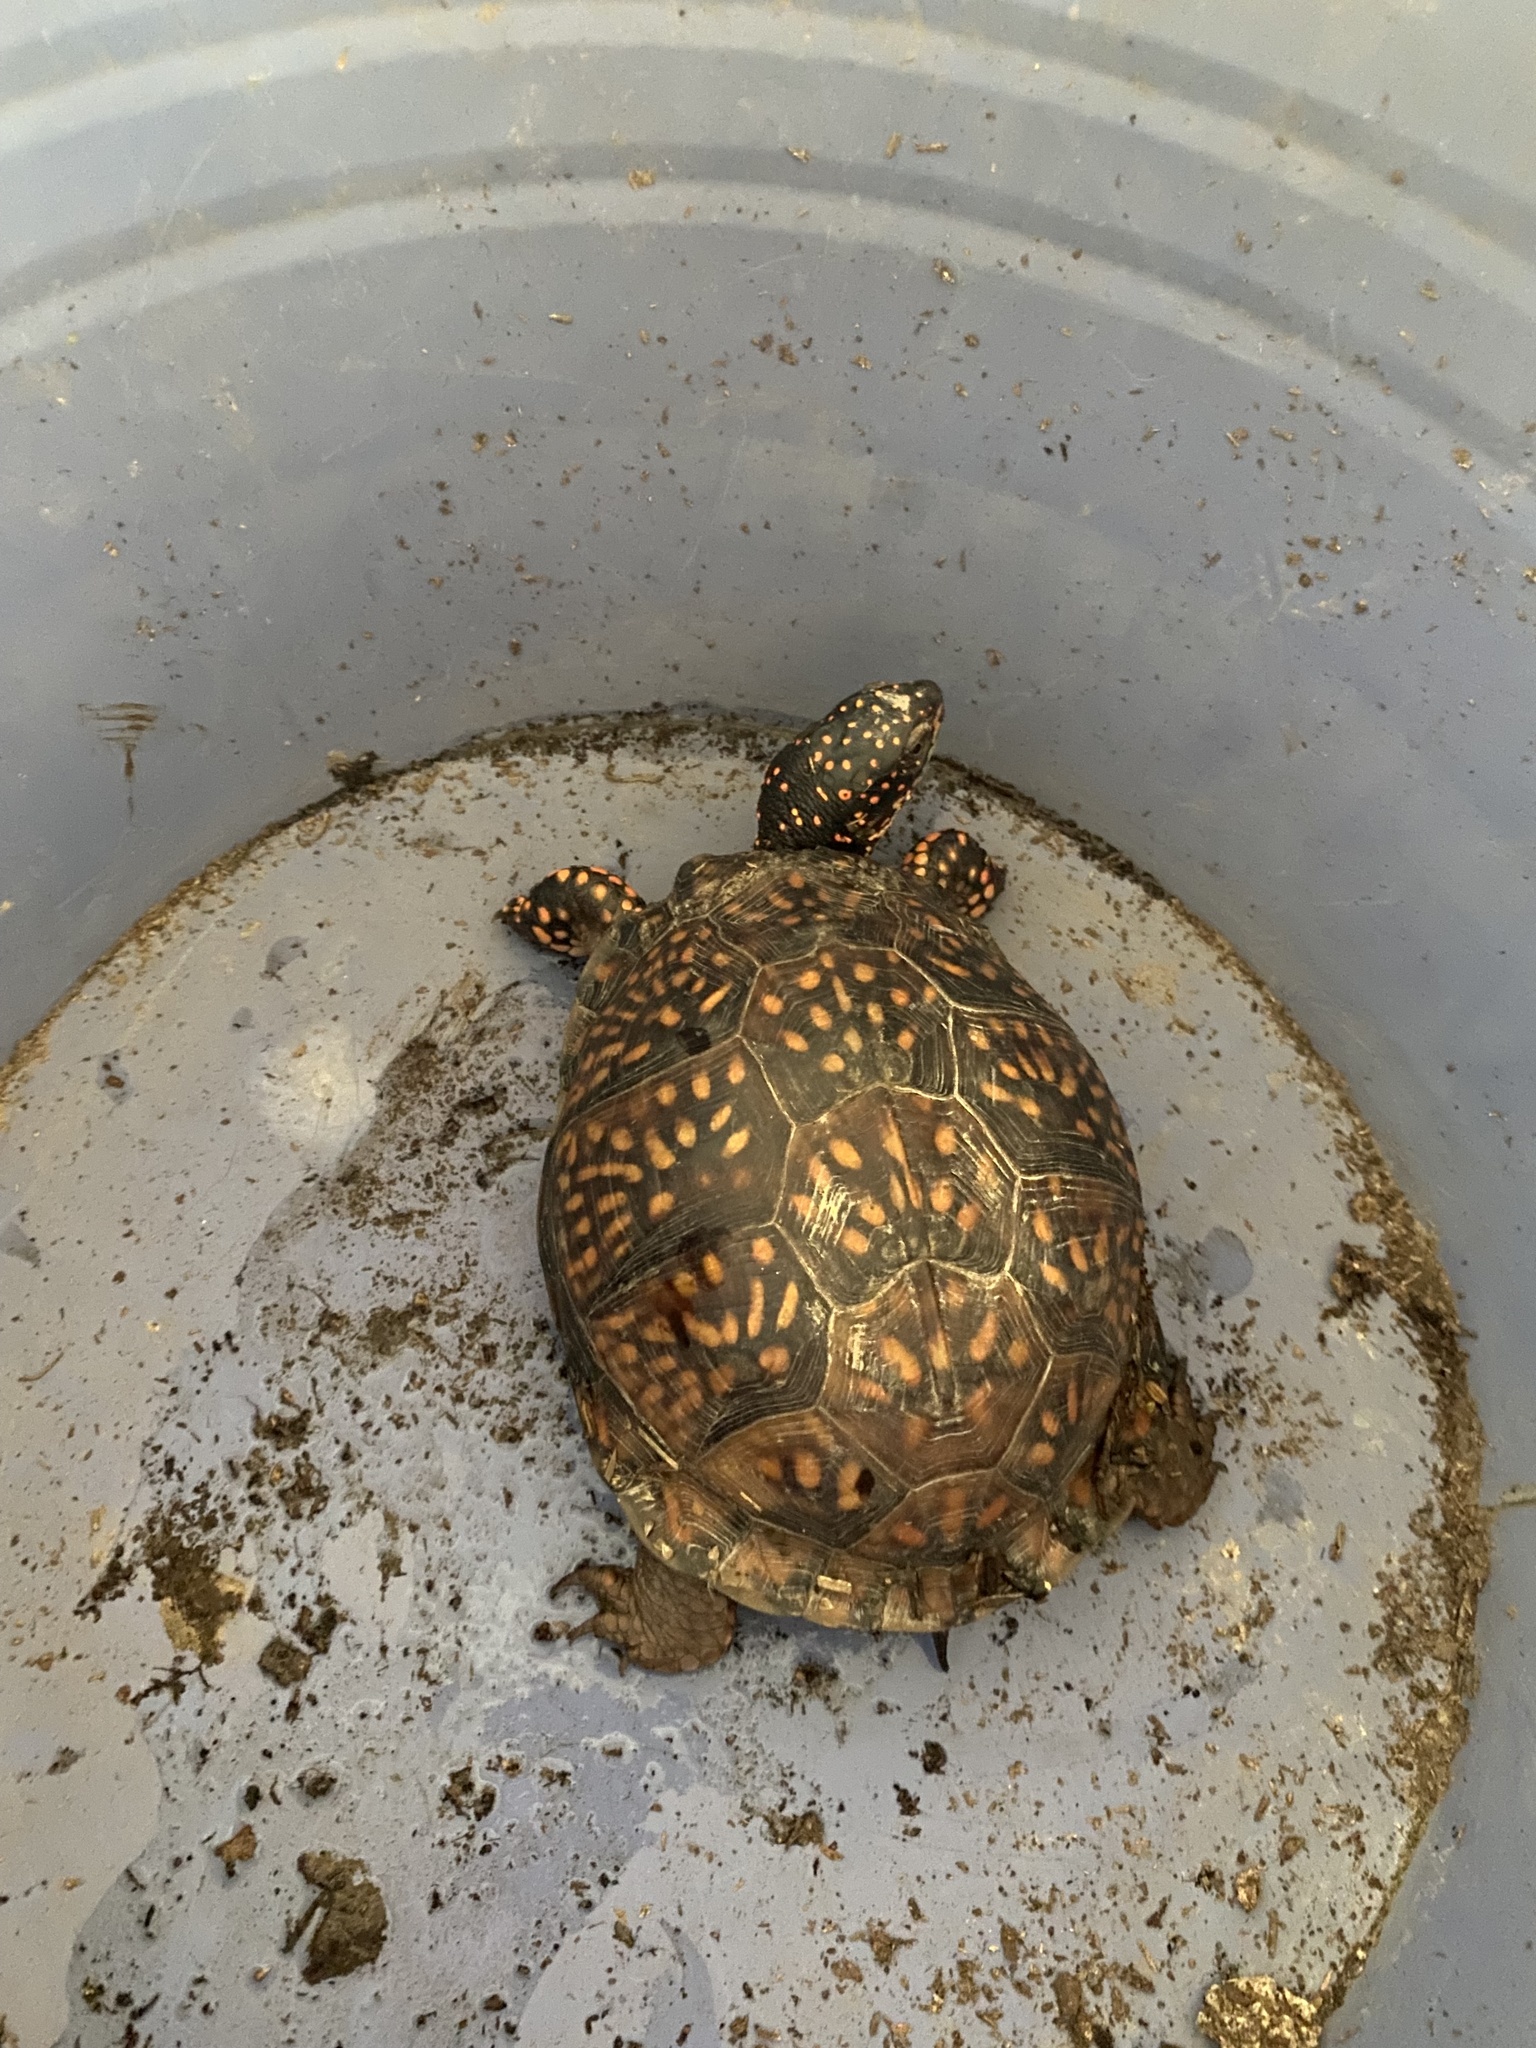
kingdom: Animalia
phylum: Chordata
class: Testudines
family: Emydidae
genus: Terrapene
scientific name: Terrapene carolina
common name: Common box turtle
